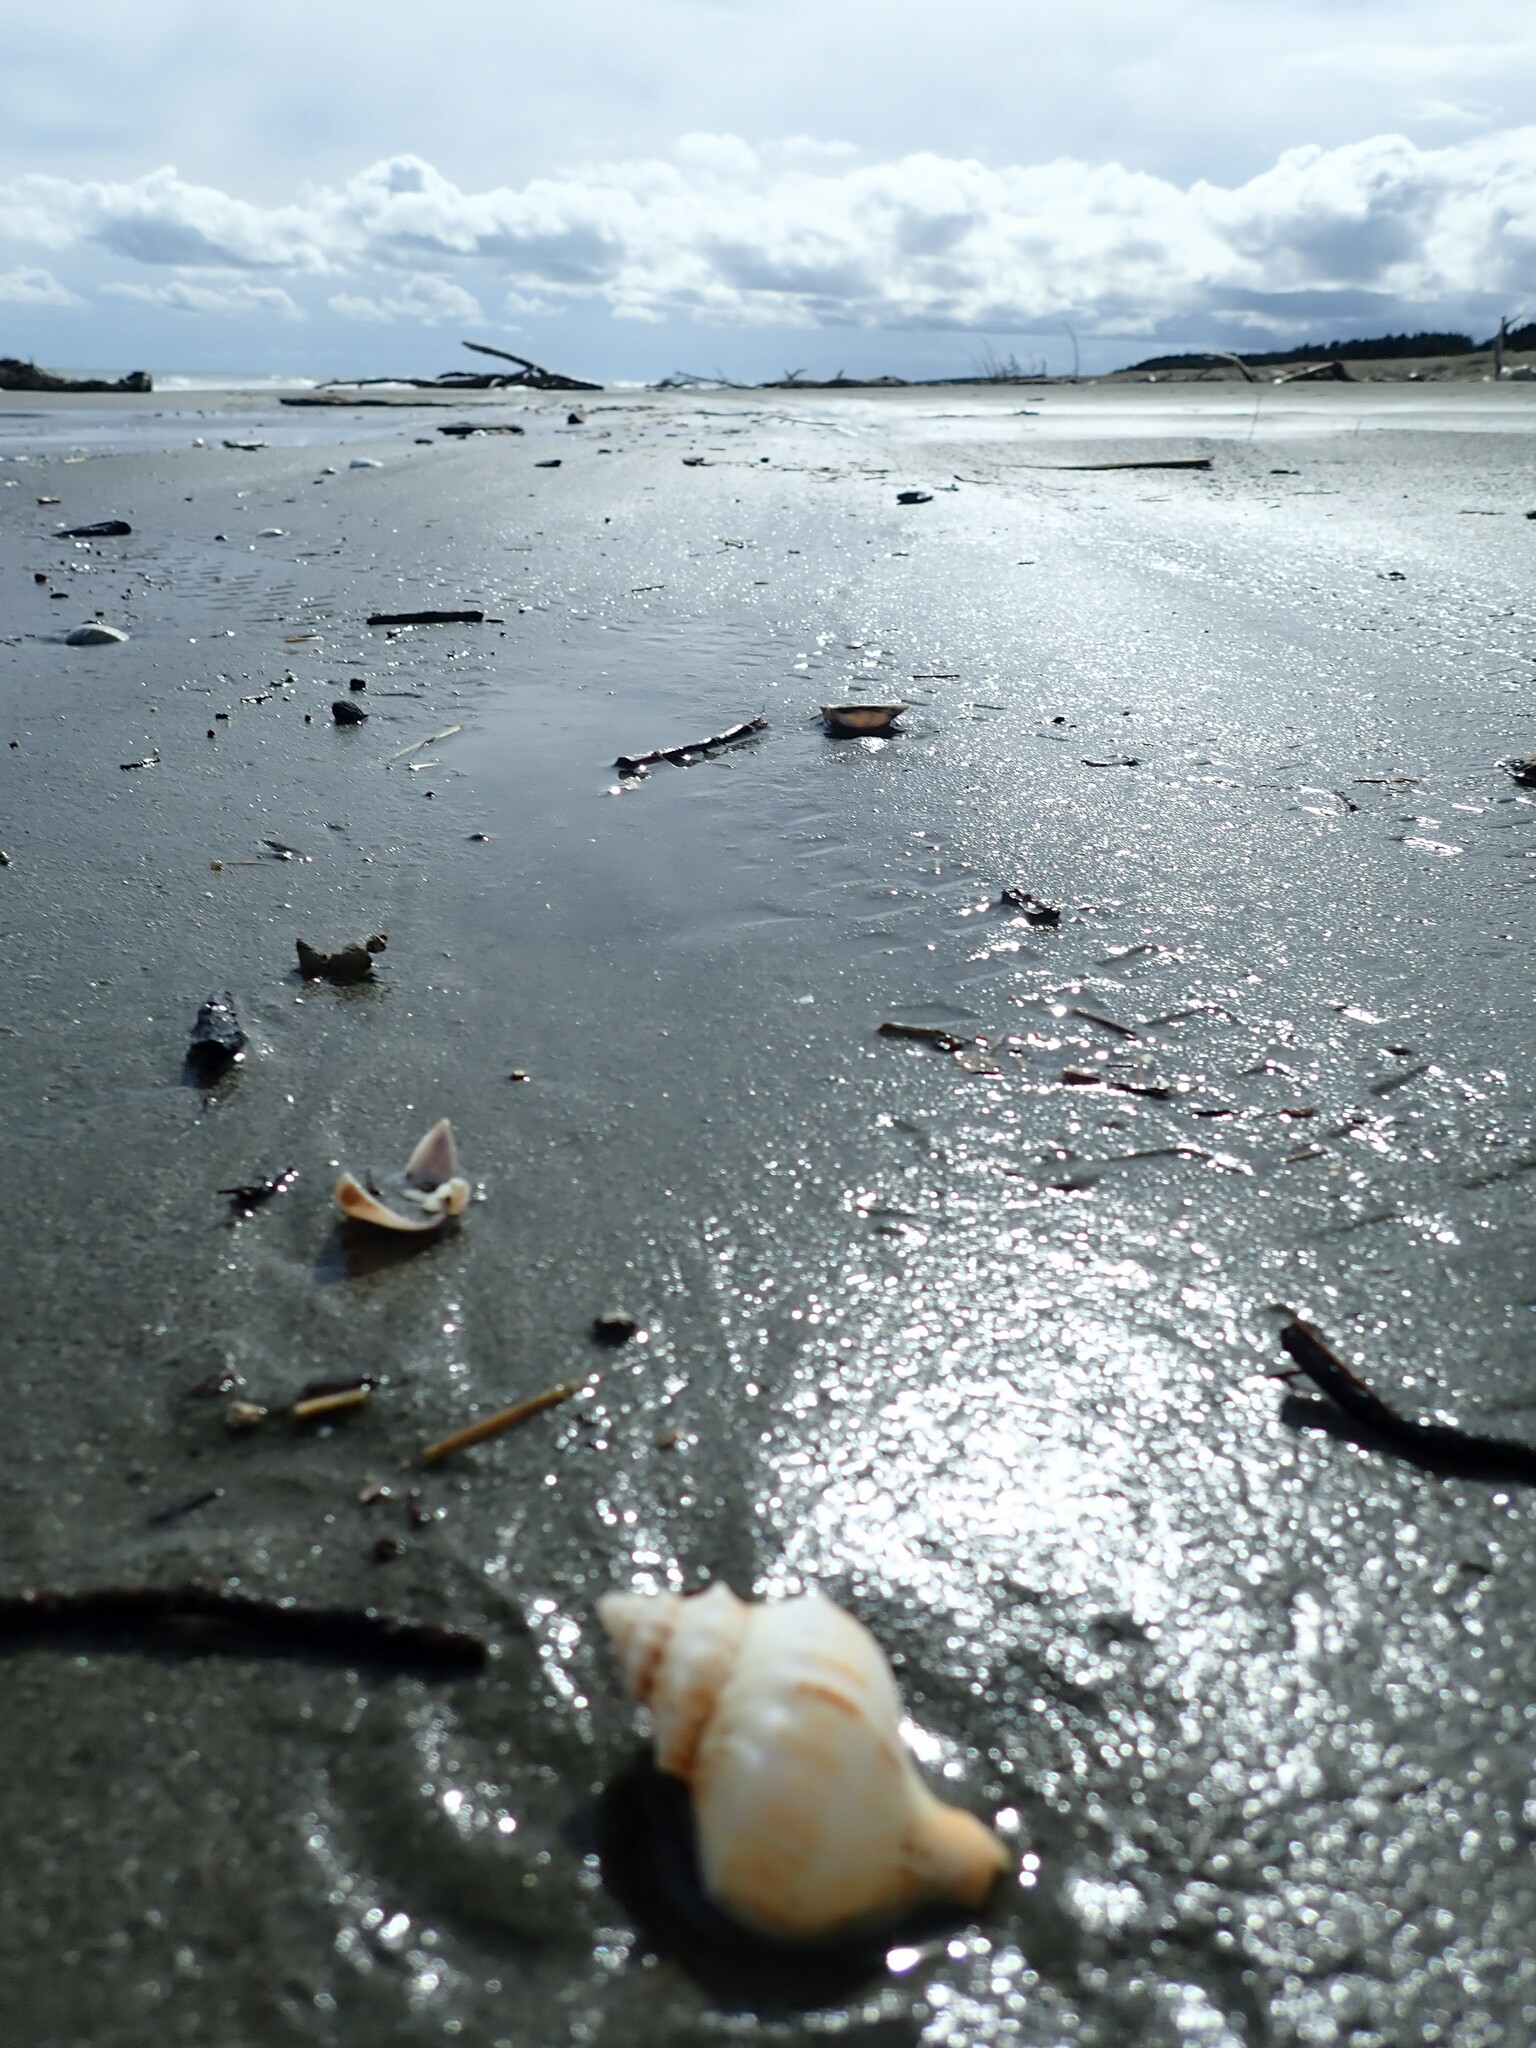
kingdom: Animalia
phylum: Mollusca
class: Gastropoda
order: Neogastropoda
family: Prosiphonidae
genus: Austrofusus
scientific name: Austrofusus glans
